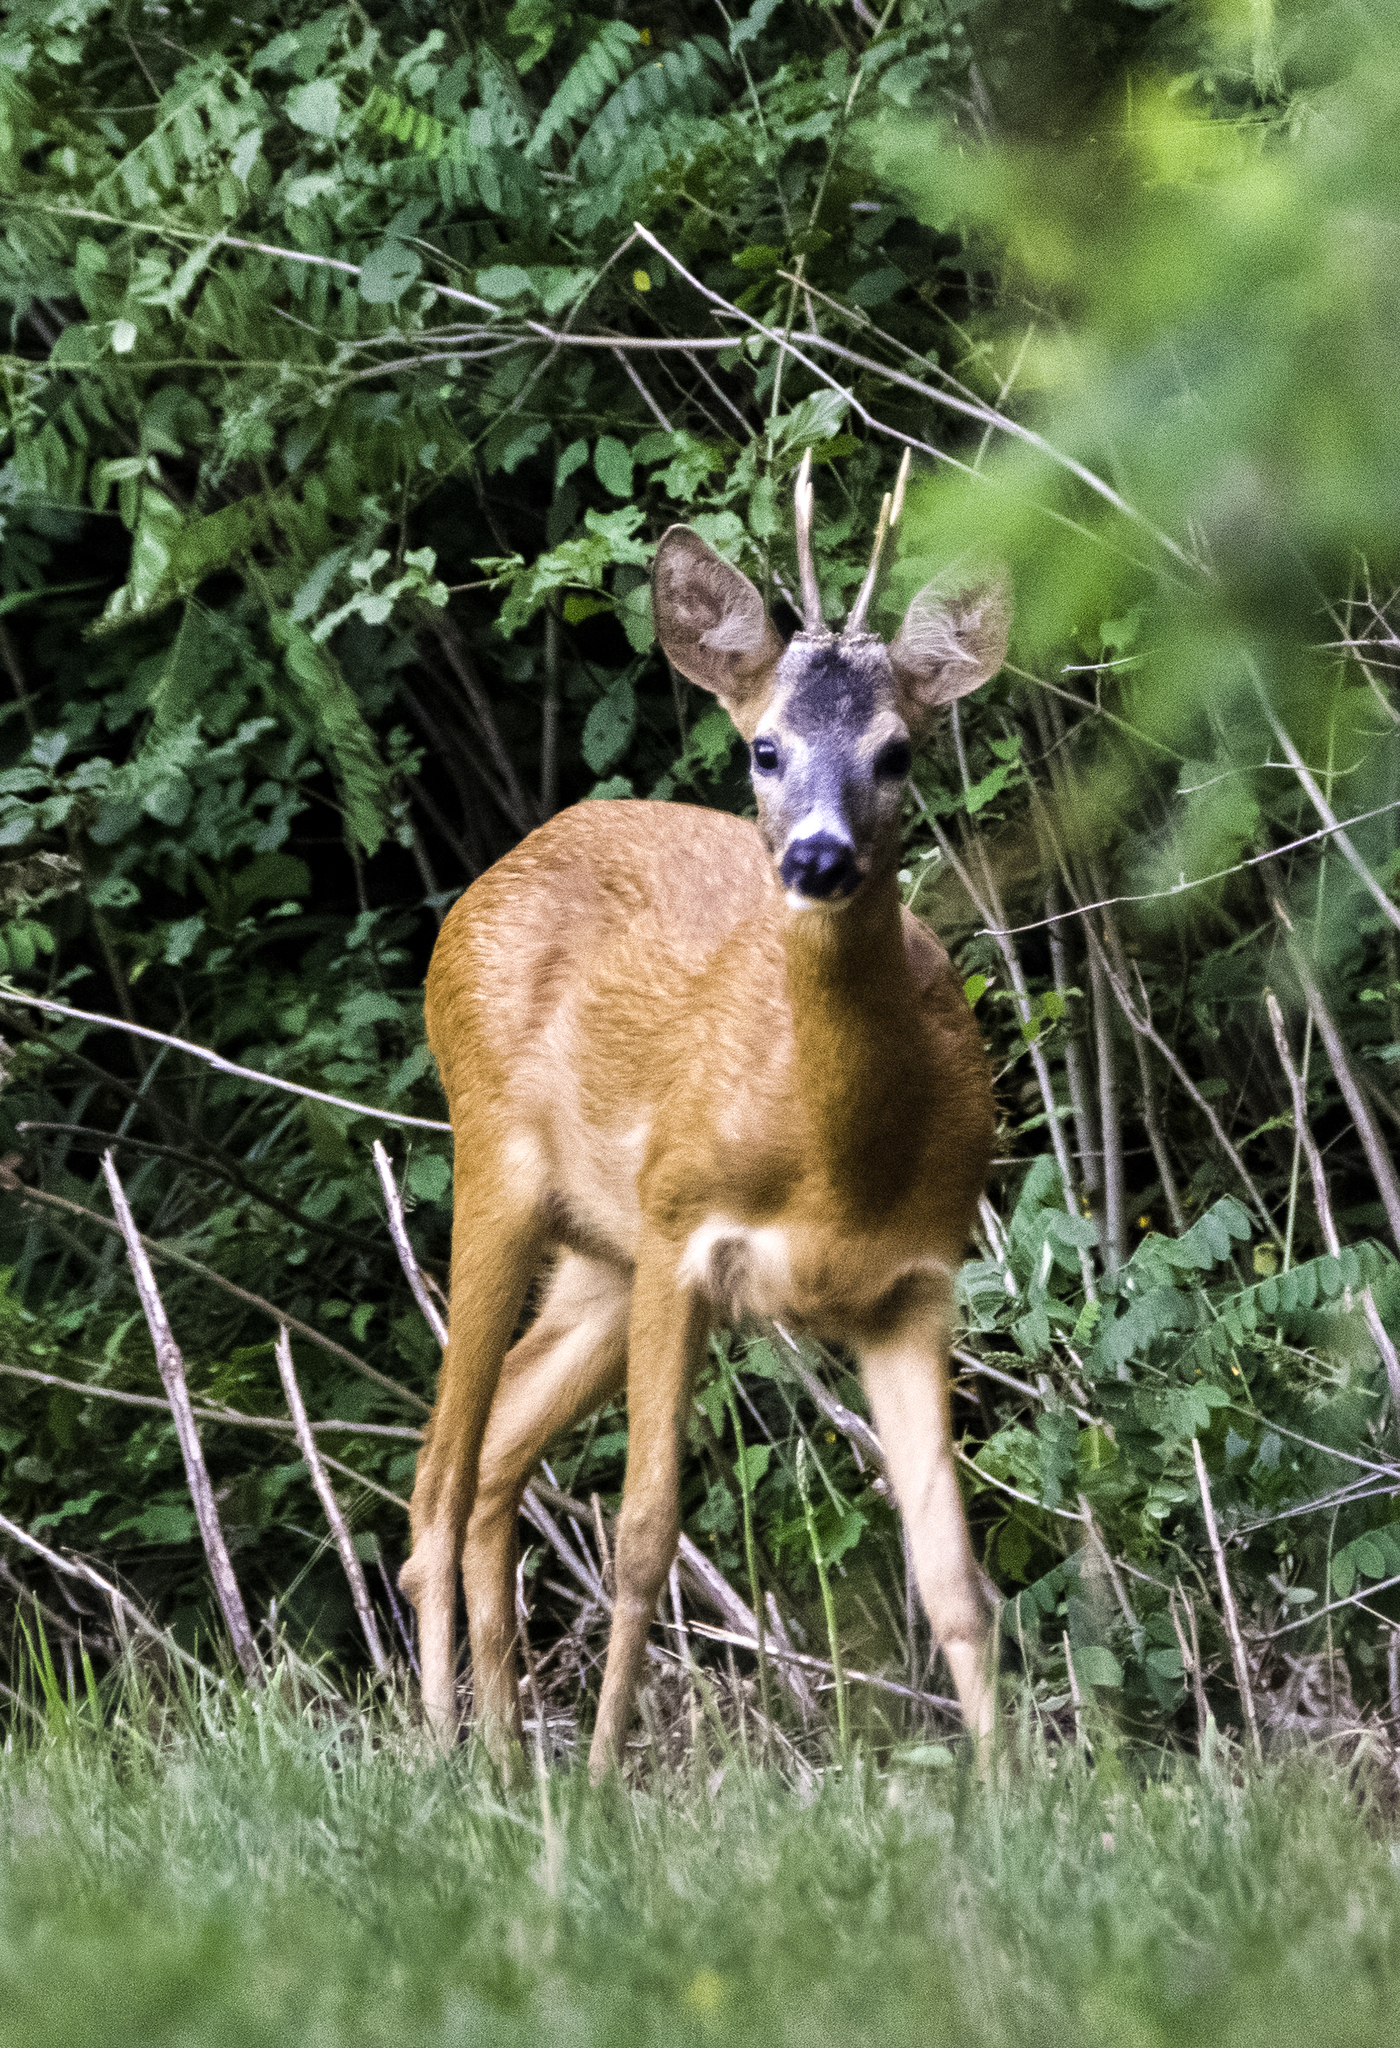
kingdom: Animalia
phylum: Chordata
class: Mammalia
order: Artiodactyla
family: Cervidae
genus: Capreolus
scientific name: Capreolus capreolus
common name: Western roe deer
